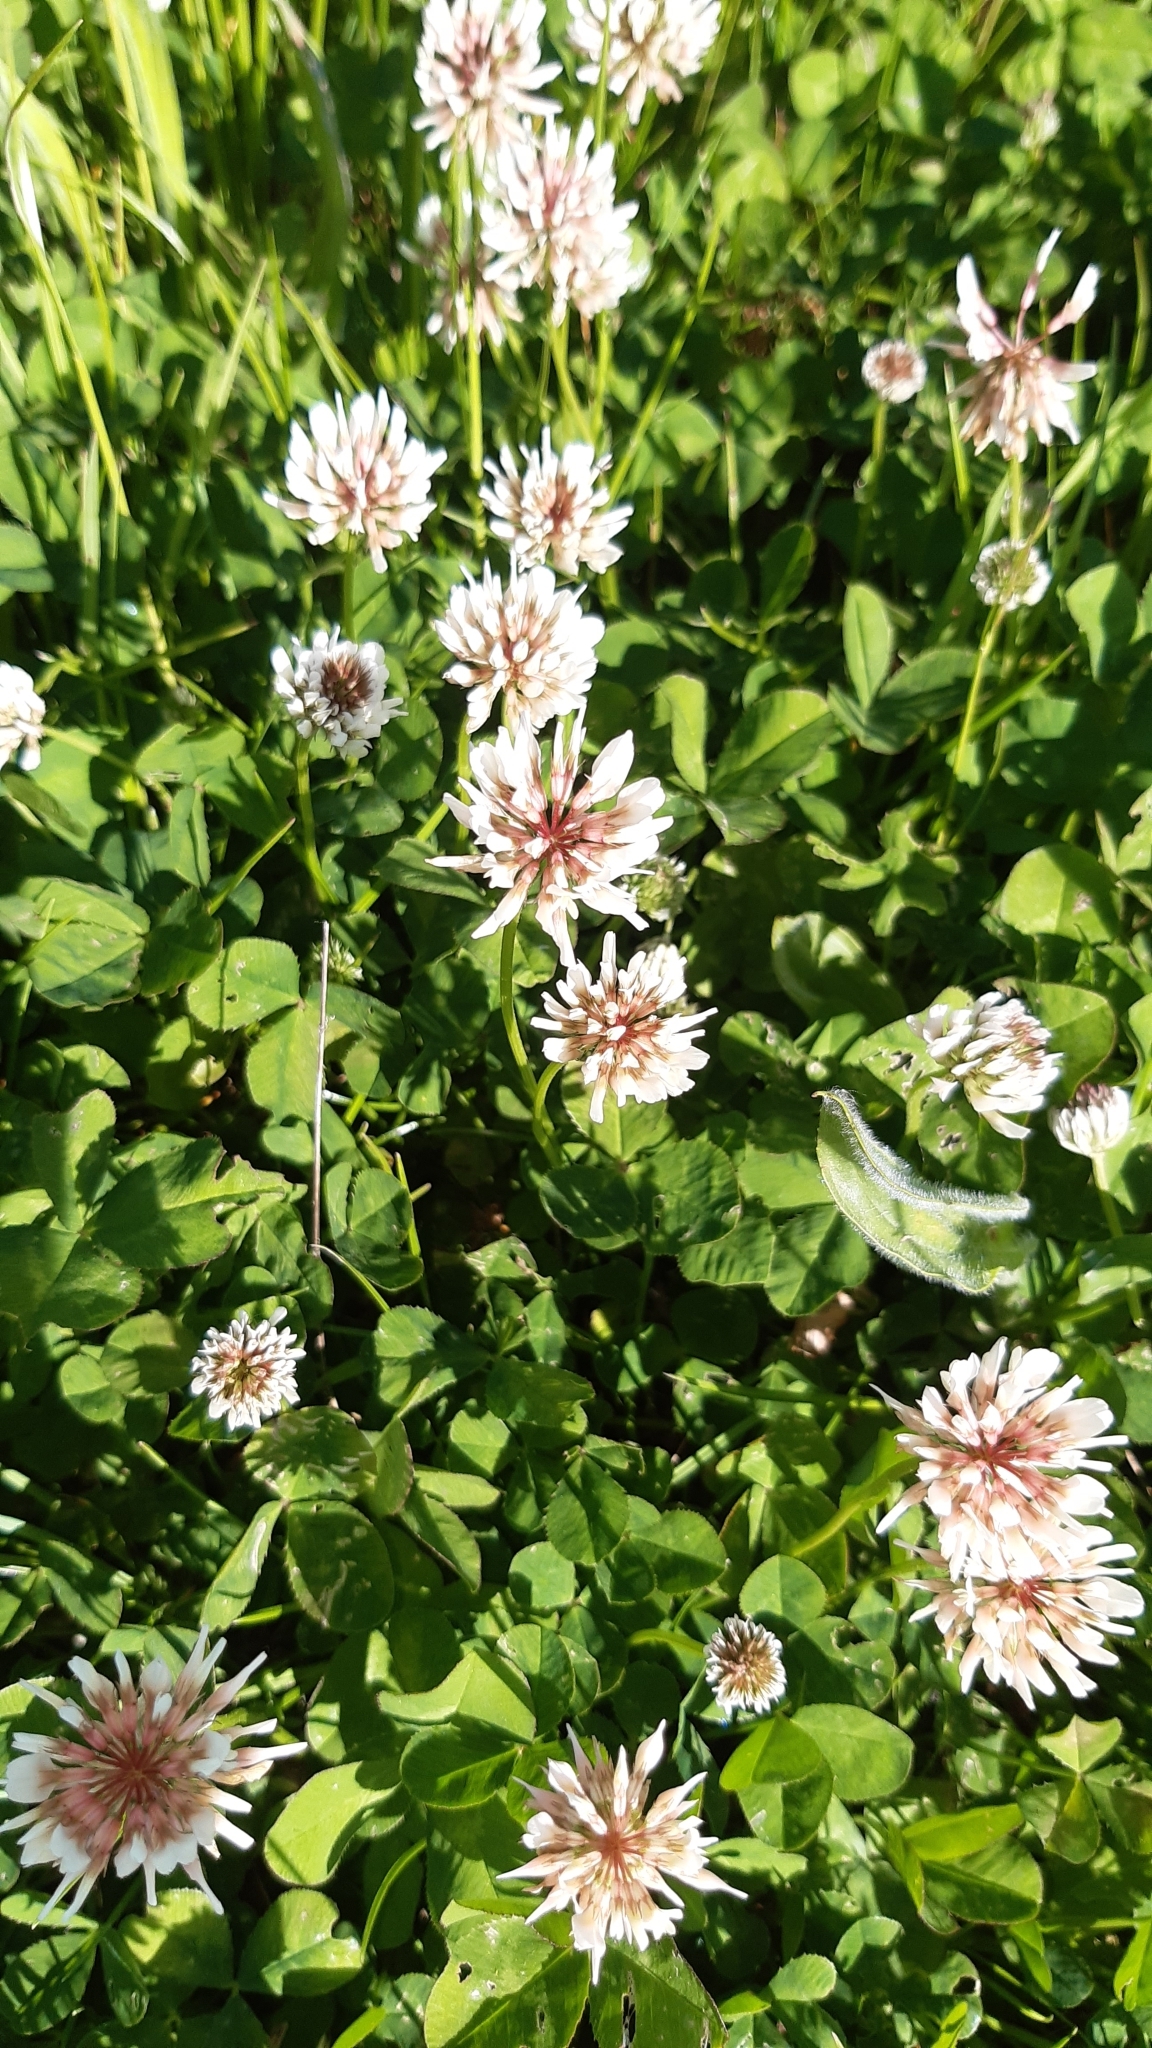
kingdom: Plantae
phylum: Tracheophyta
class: Magnoliopsida
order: Fabales
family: Fabaceae
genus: Trifolium
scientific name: Trifolium repens
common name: White clover
